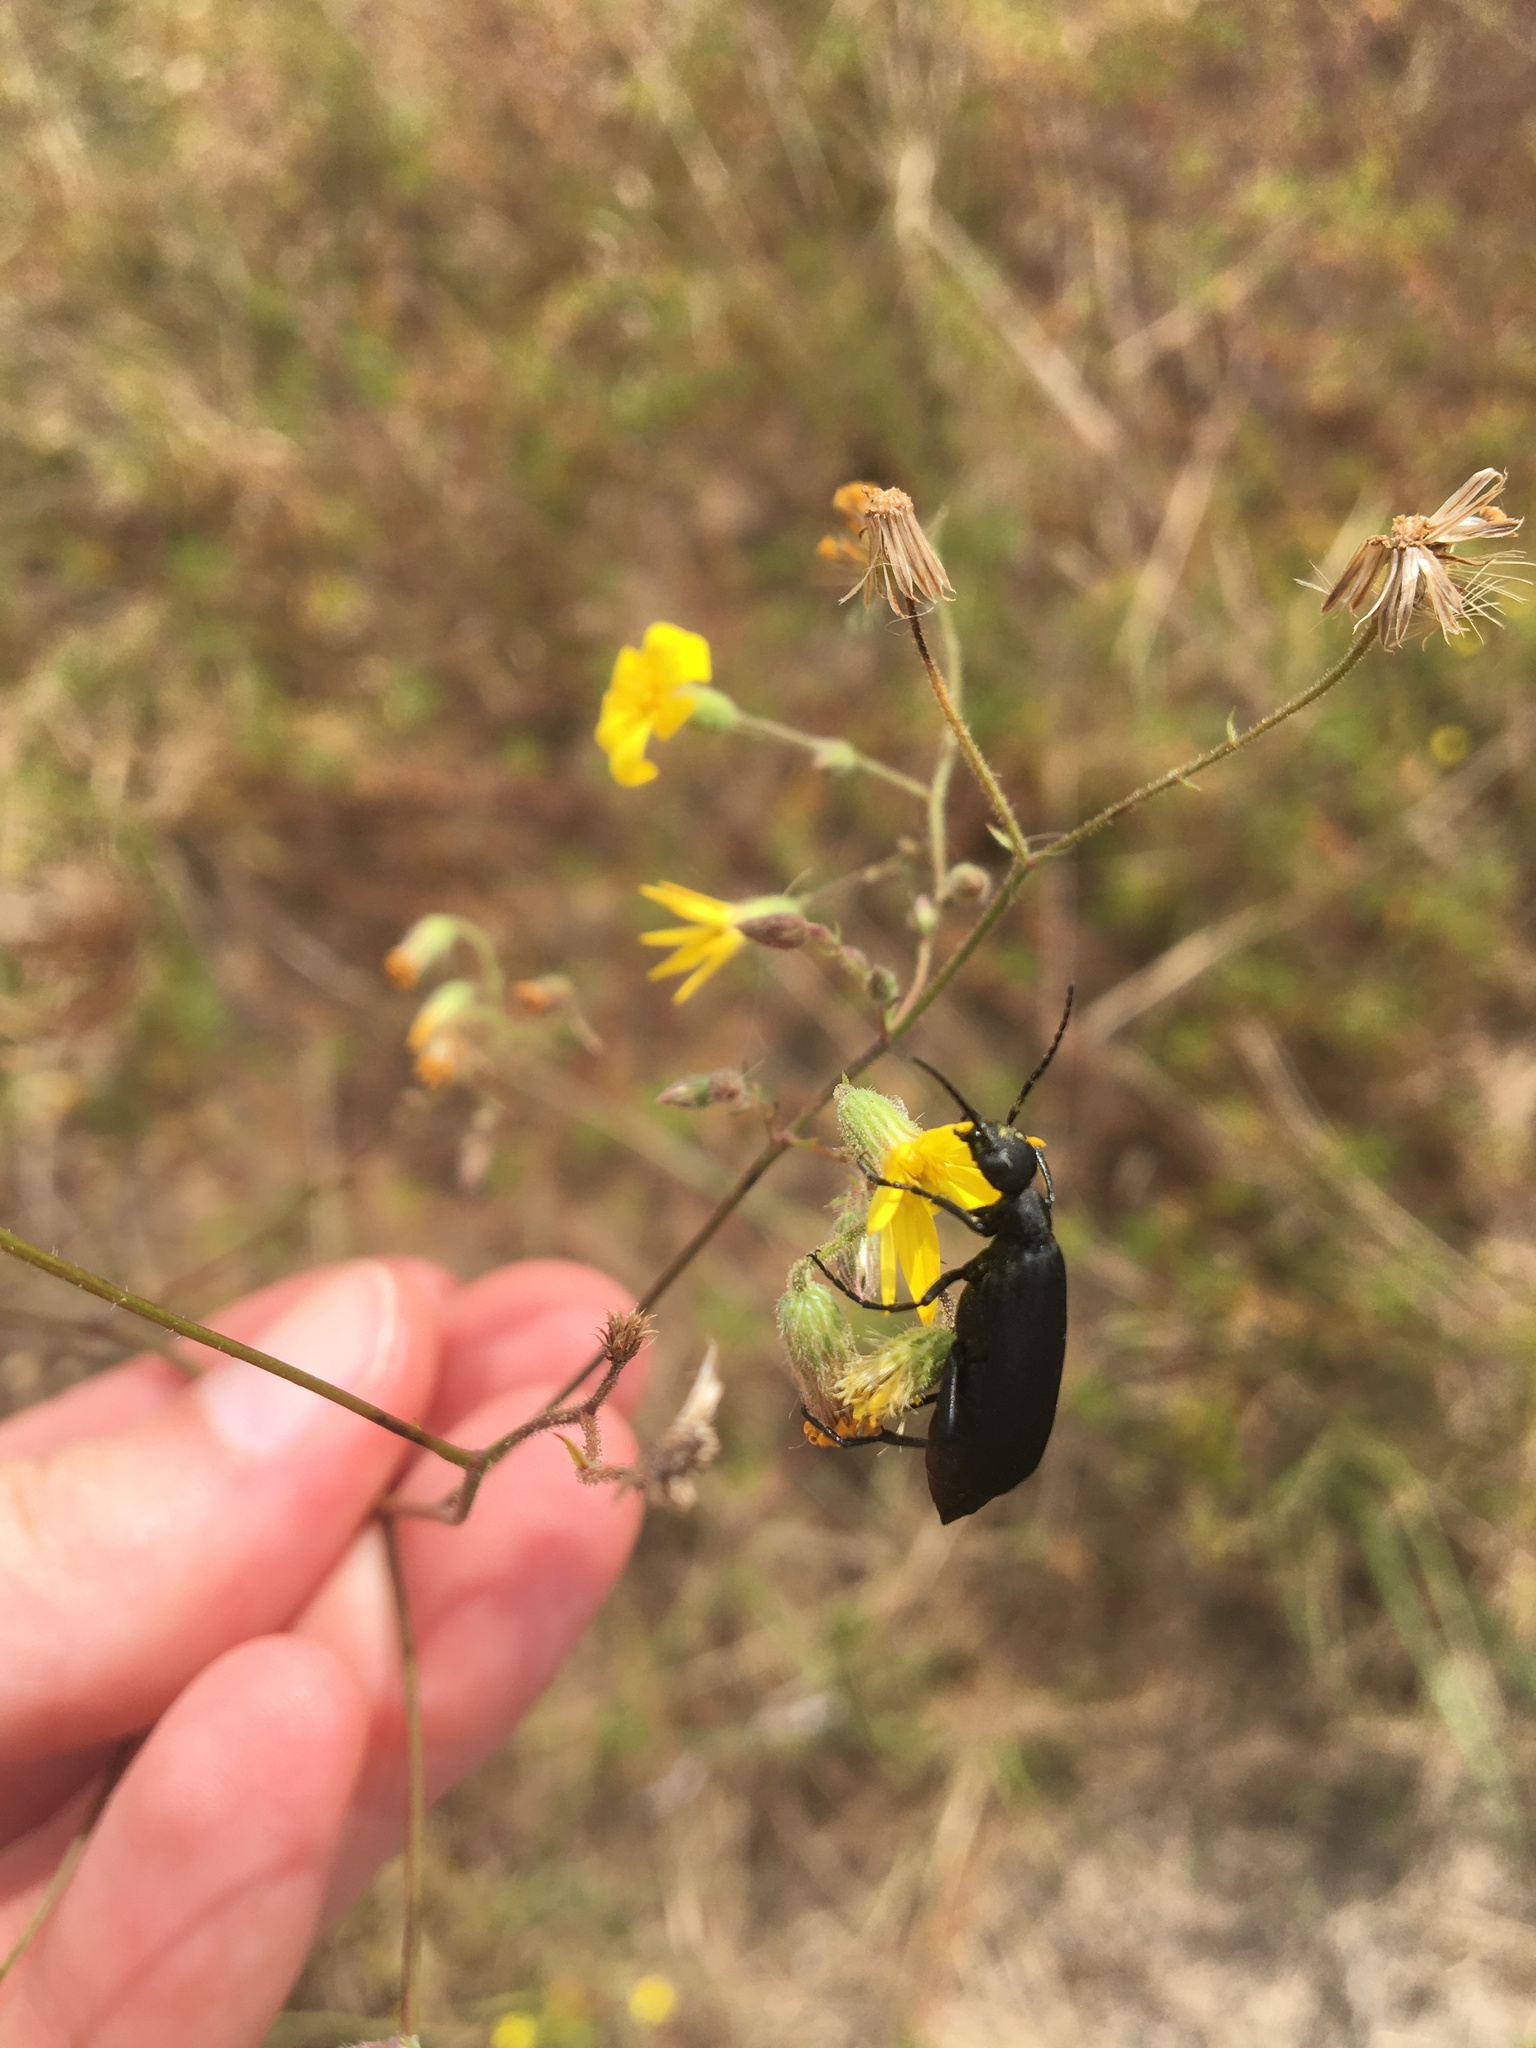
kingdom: Animalia
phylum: Arthropoda
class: Insecta
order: Coleoptera
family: Meloidae
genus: Epicauta
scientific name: Epicauta pensylvanica
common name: Black blister beetle
